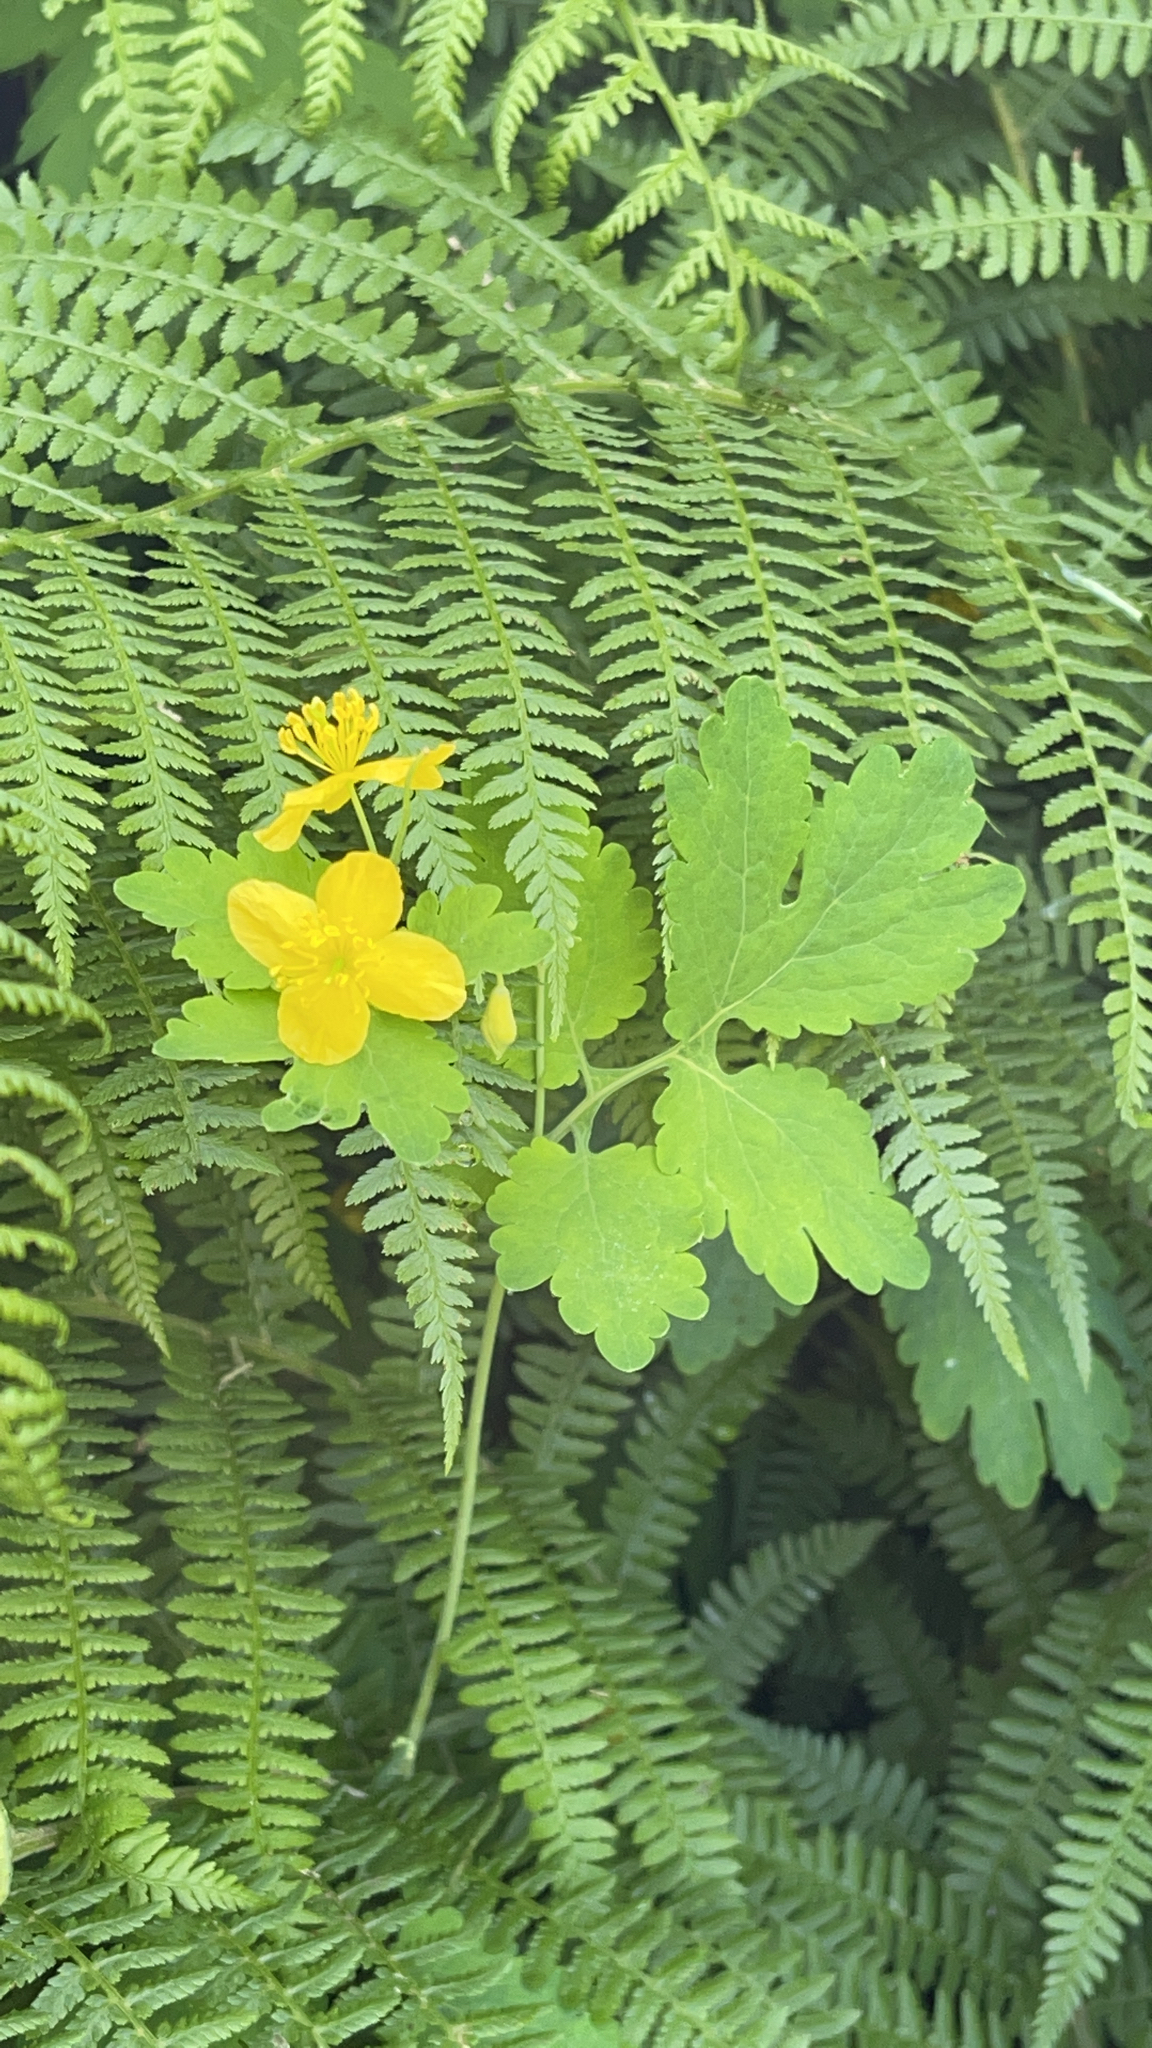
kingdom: Plantae
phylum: Tracheophyta
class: Magnoliopsida
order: Ranunculales
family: Papaveraceae
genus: Chelidonium
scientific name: Chelidonium majus
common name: Greater celandine
